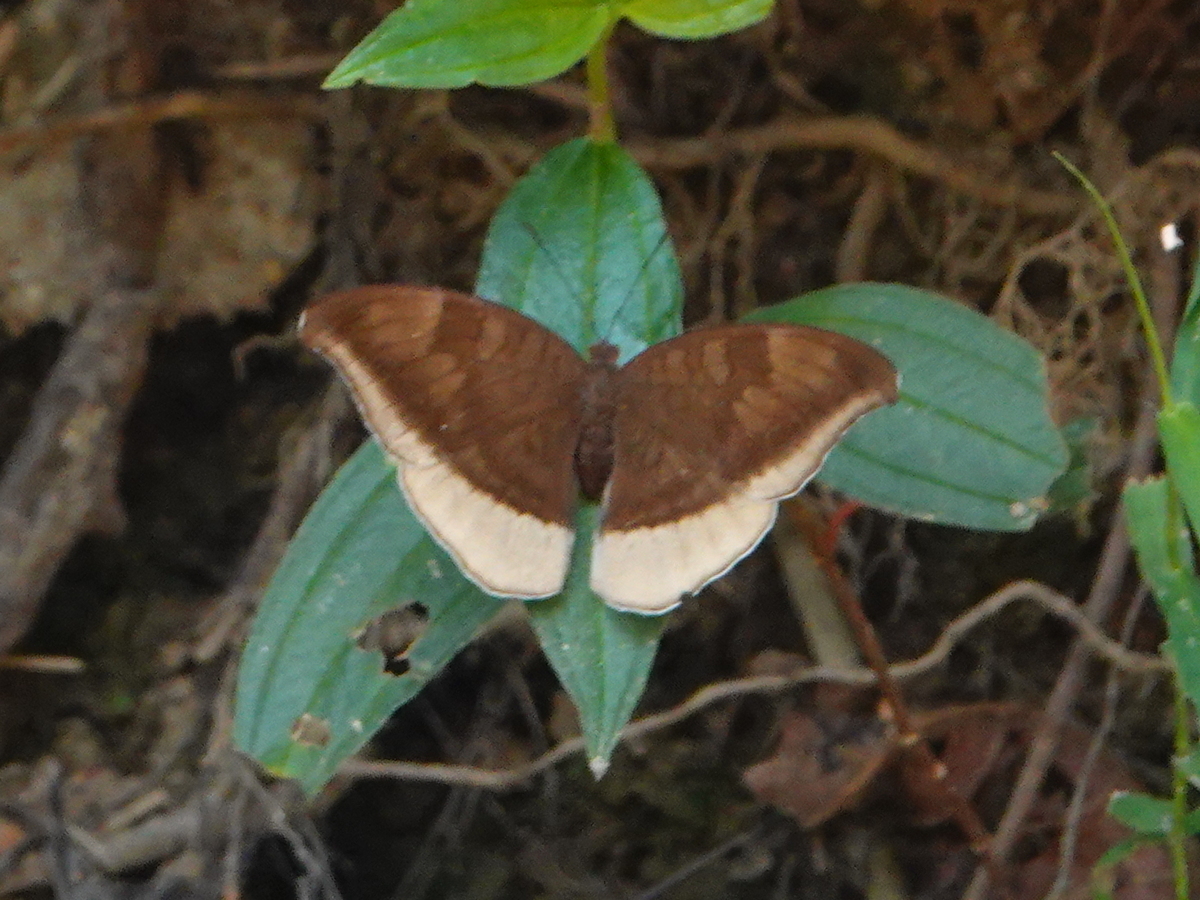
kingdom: Animalia
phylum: Arthropoda
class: Insecta
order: Lepidoptera
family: Nymphalidae
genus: Tanaecia
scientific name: Tanaecia lepidea
